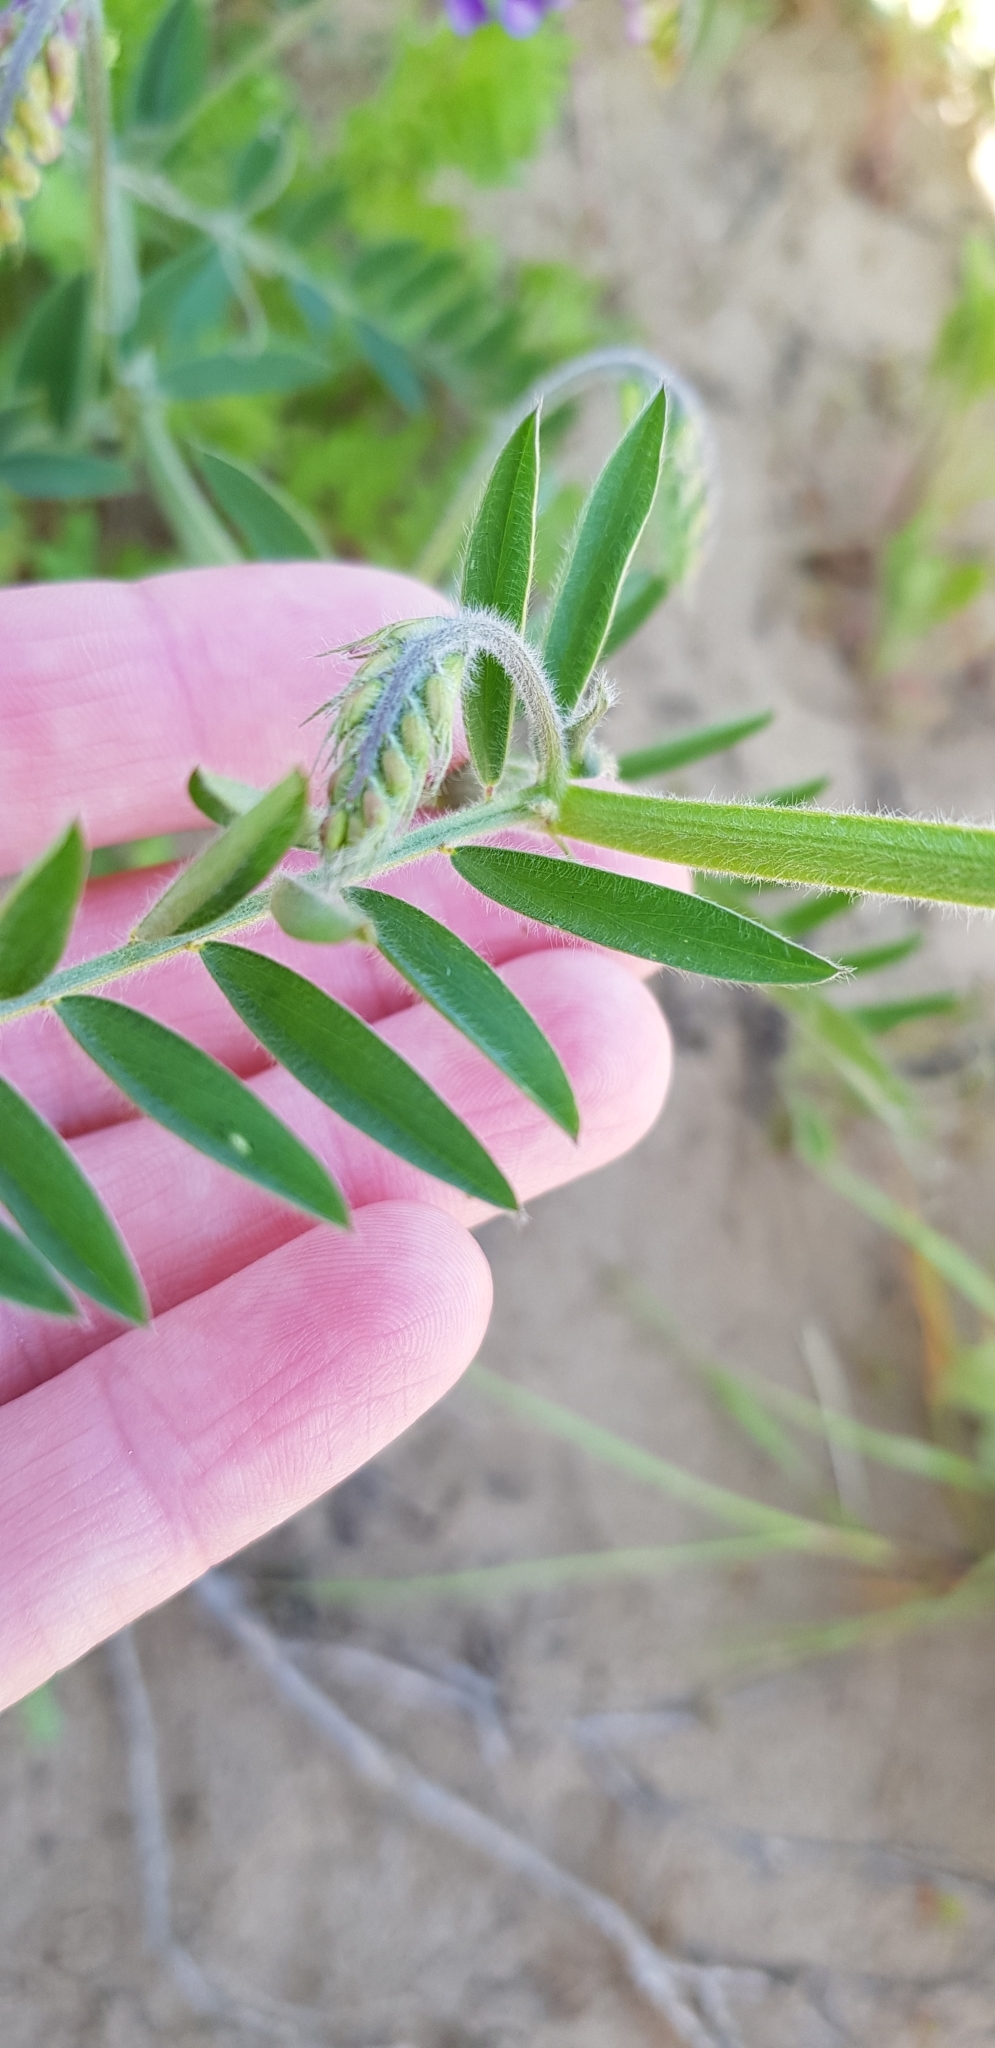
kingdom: Plantae
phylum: Tracheophyta
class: Magnoliopsida
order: Fabales
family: Fabaceae
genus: Vicia
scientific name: Vicia villosa
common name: Fodder vetch
